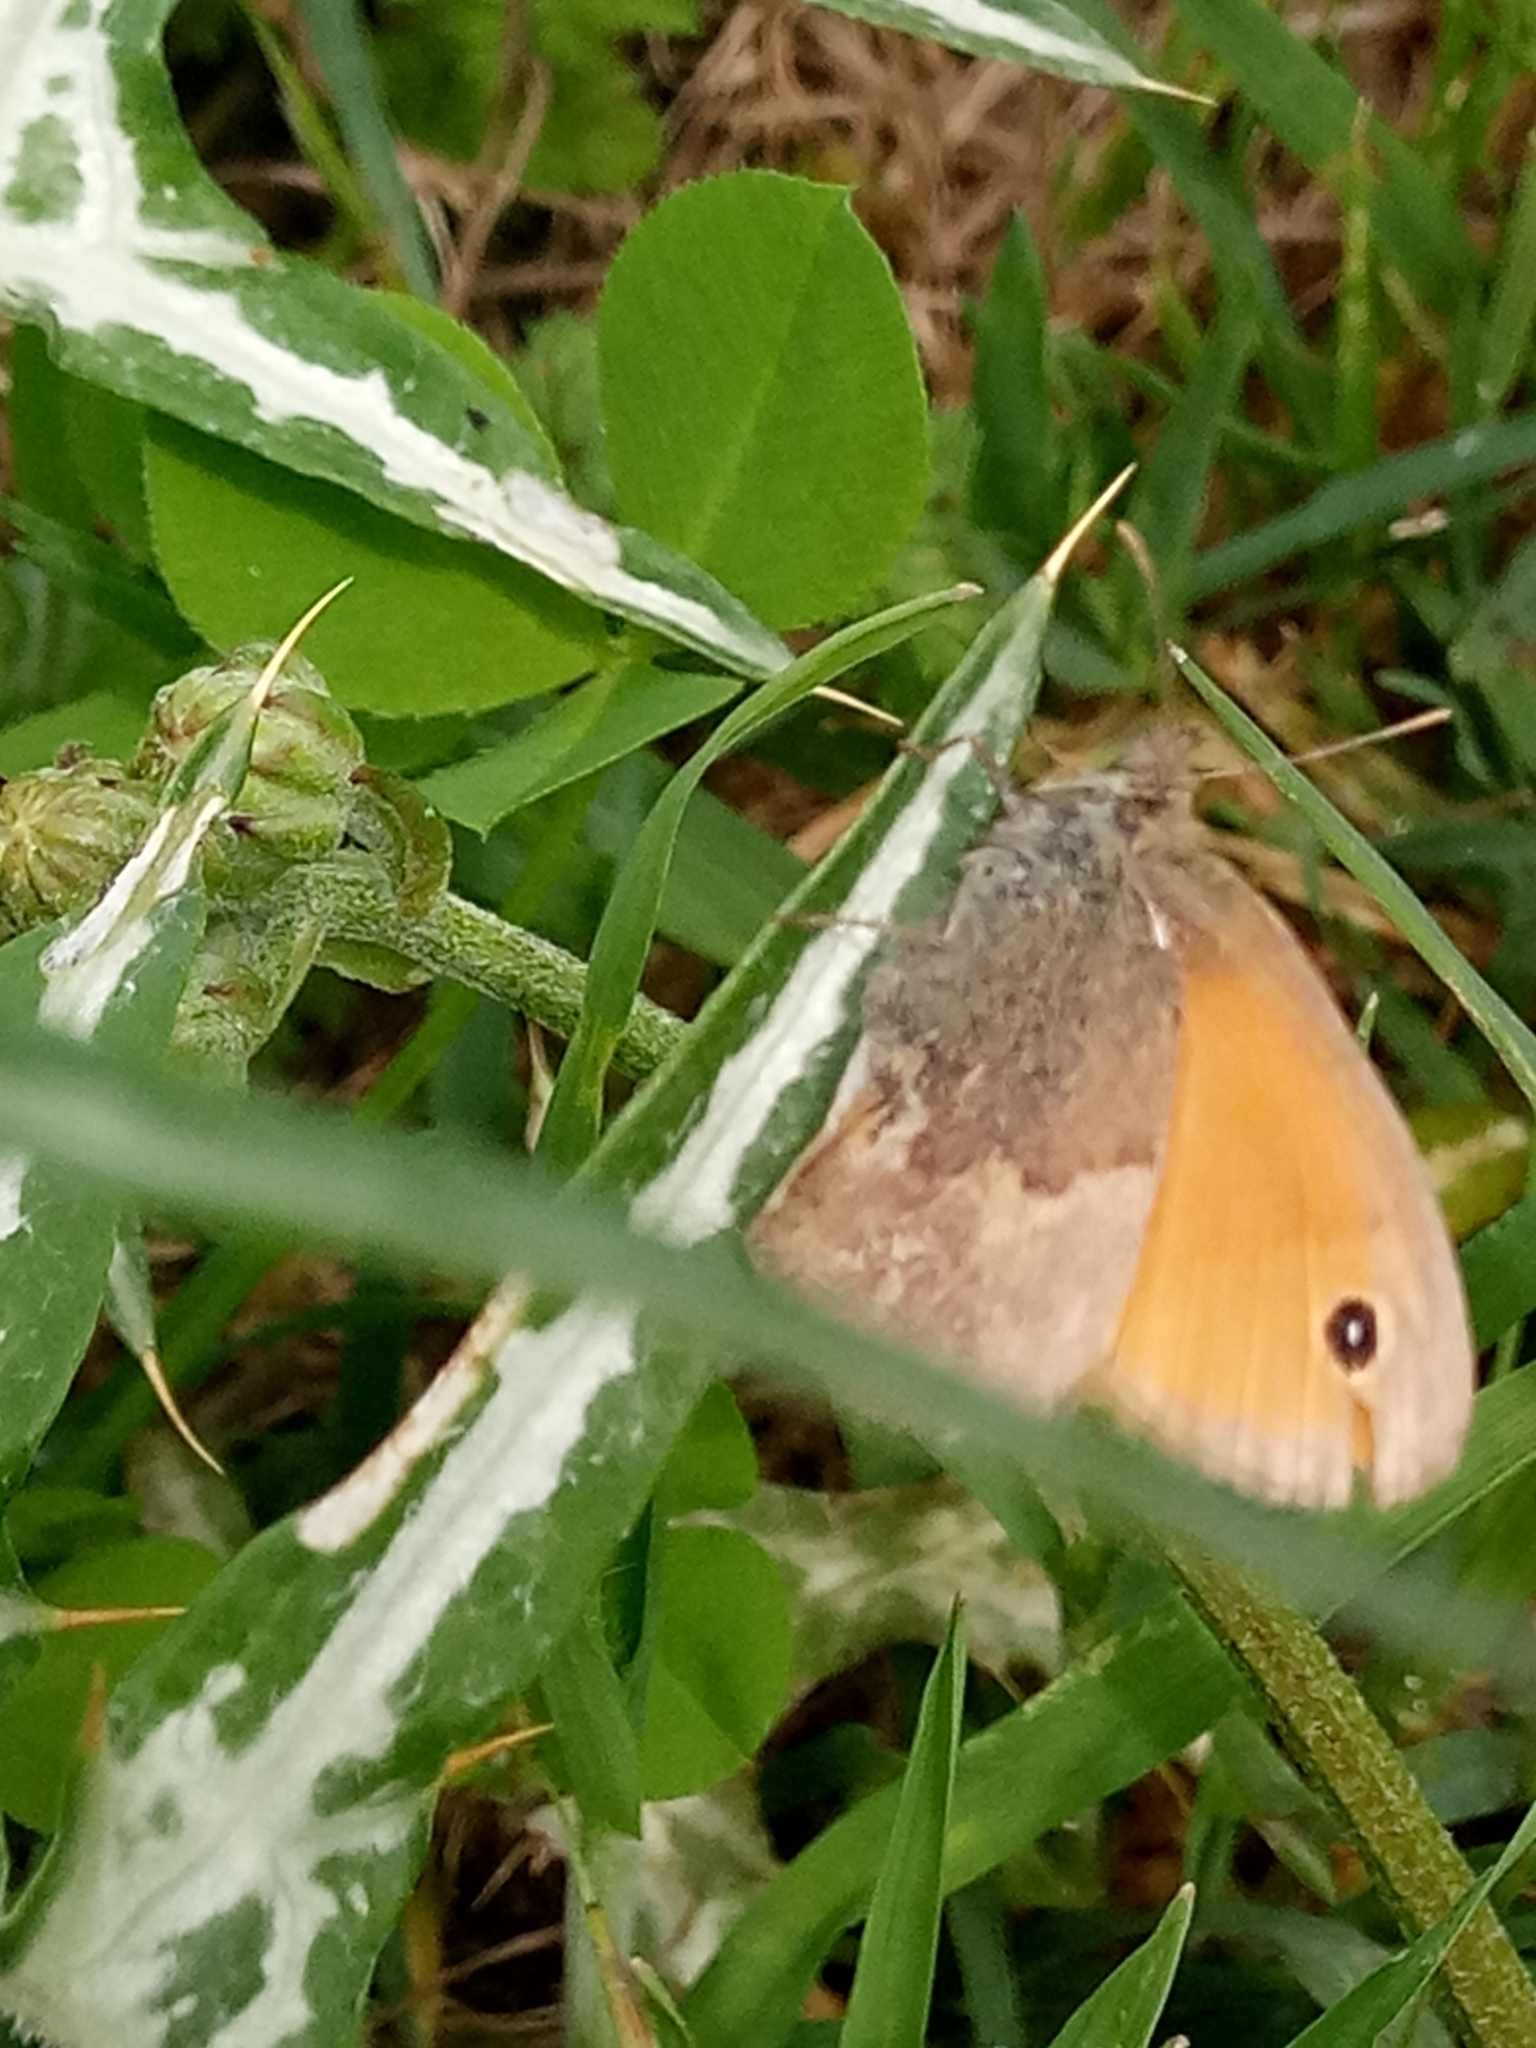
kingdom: Animalia
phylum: Arthropoda
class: Insecta
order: Lepidoptera
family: Nymphalidae
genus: Coenonympha
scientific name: Coenonympha pamphilus
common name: Small heath
